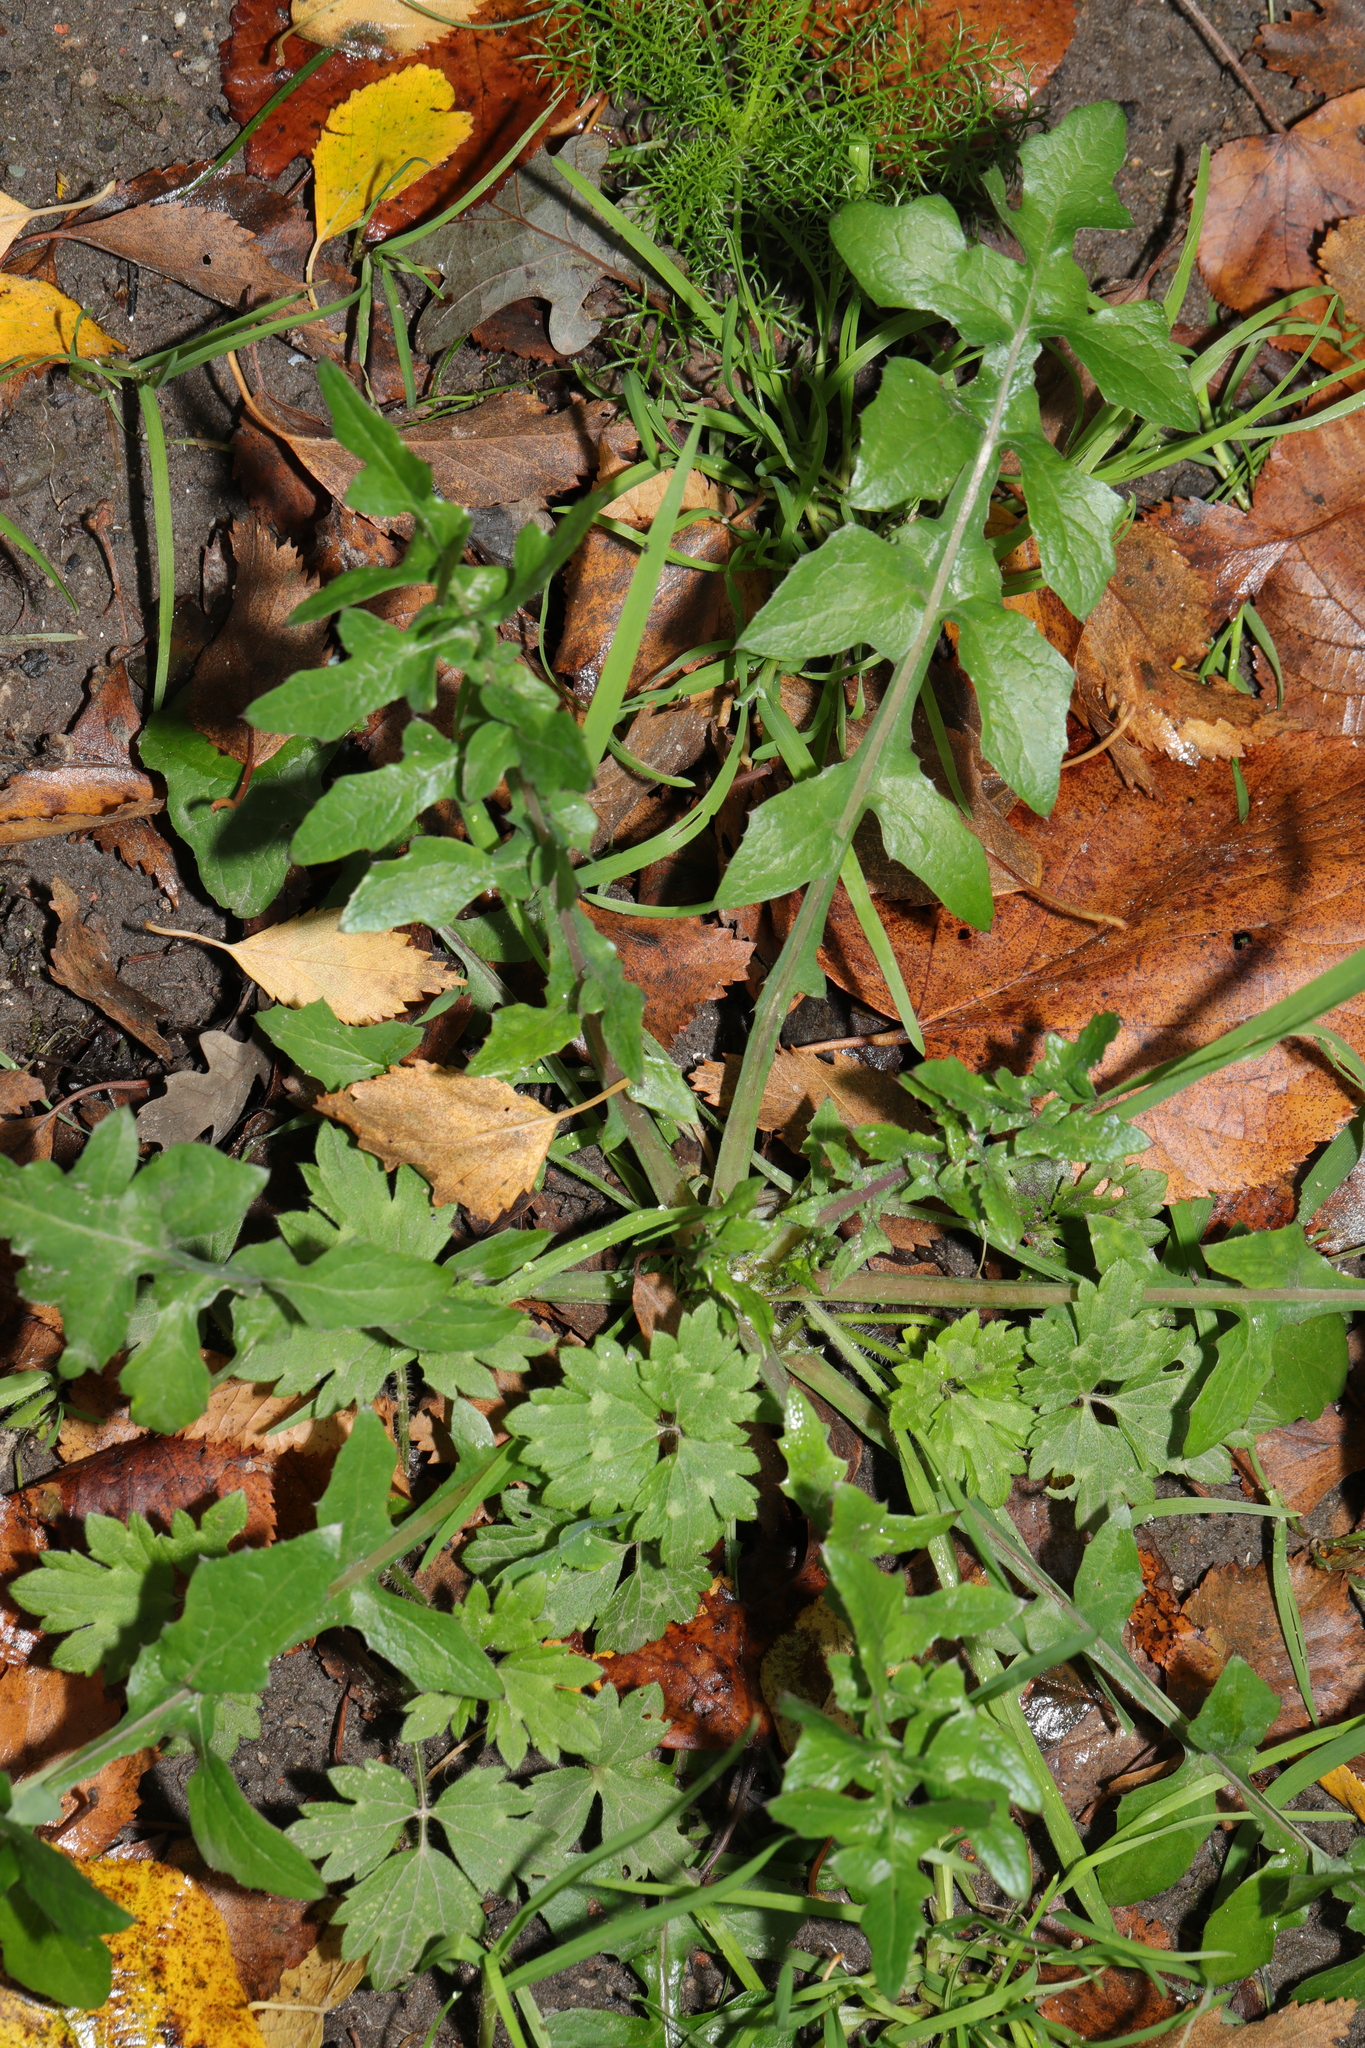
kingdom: Plantae
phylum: Tracheophyta
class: Magnoliopsida
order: Asterales
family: Asteraceae
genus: Sonchus
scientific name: Sonchus oleraceus
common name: Common sowthistle
